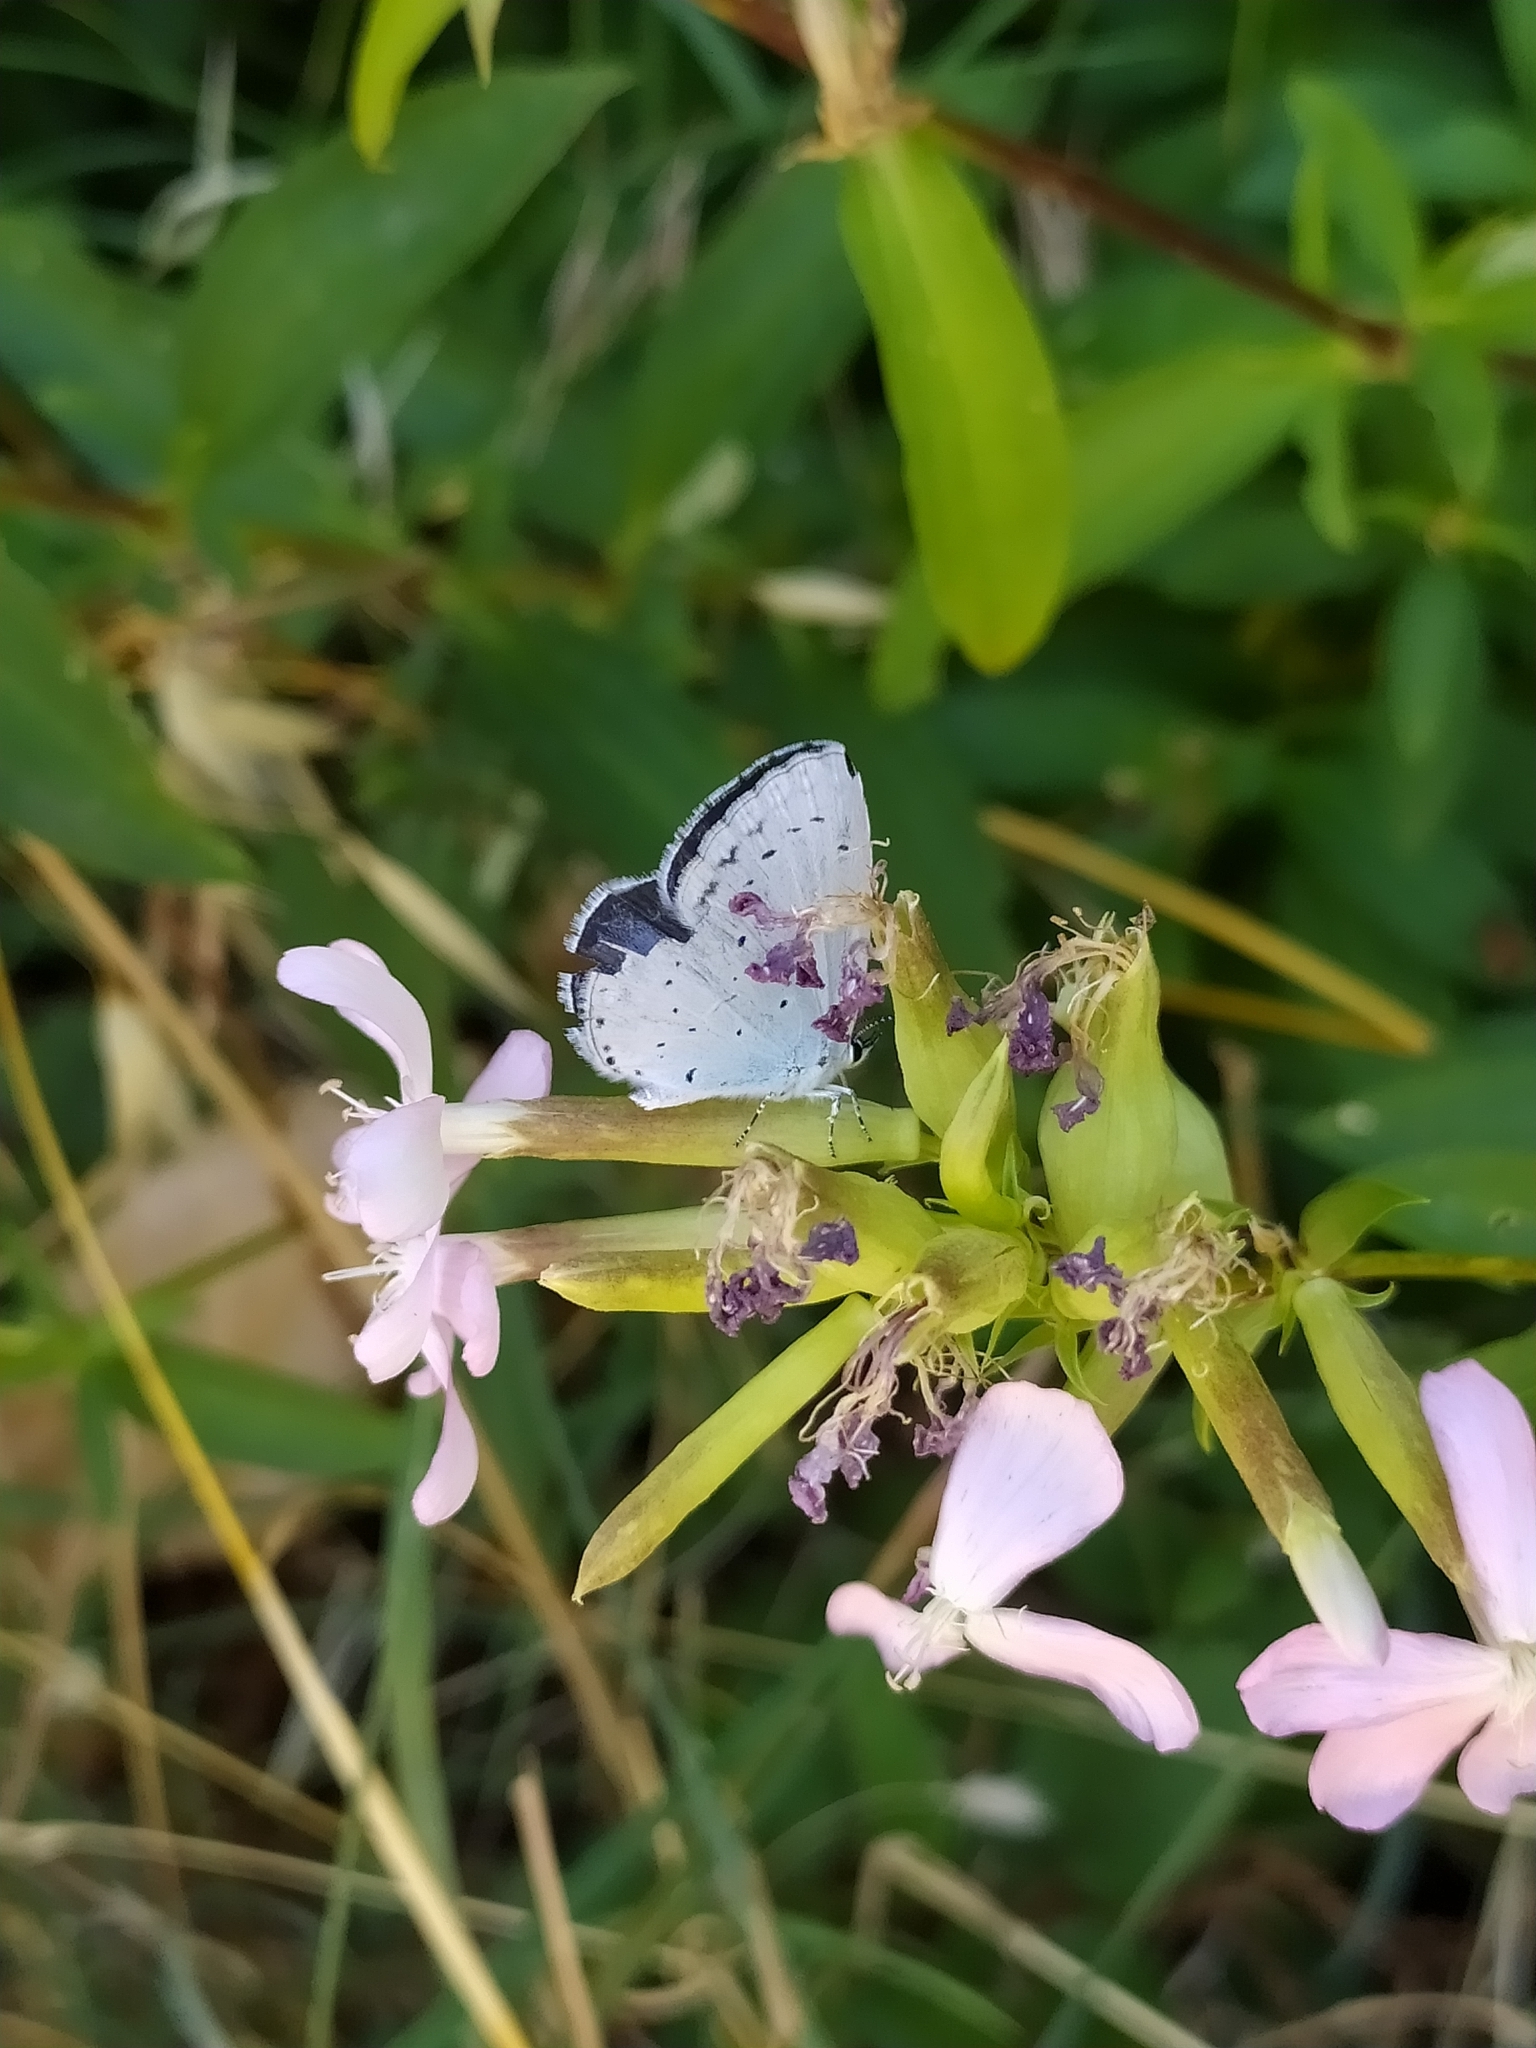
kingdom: Animalia
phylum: Arthropoda
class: Insecta
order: Lepidoptera
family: Lycaenidae
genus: Celastrina
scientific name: Celastrina argiolus
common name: Holly blue
